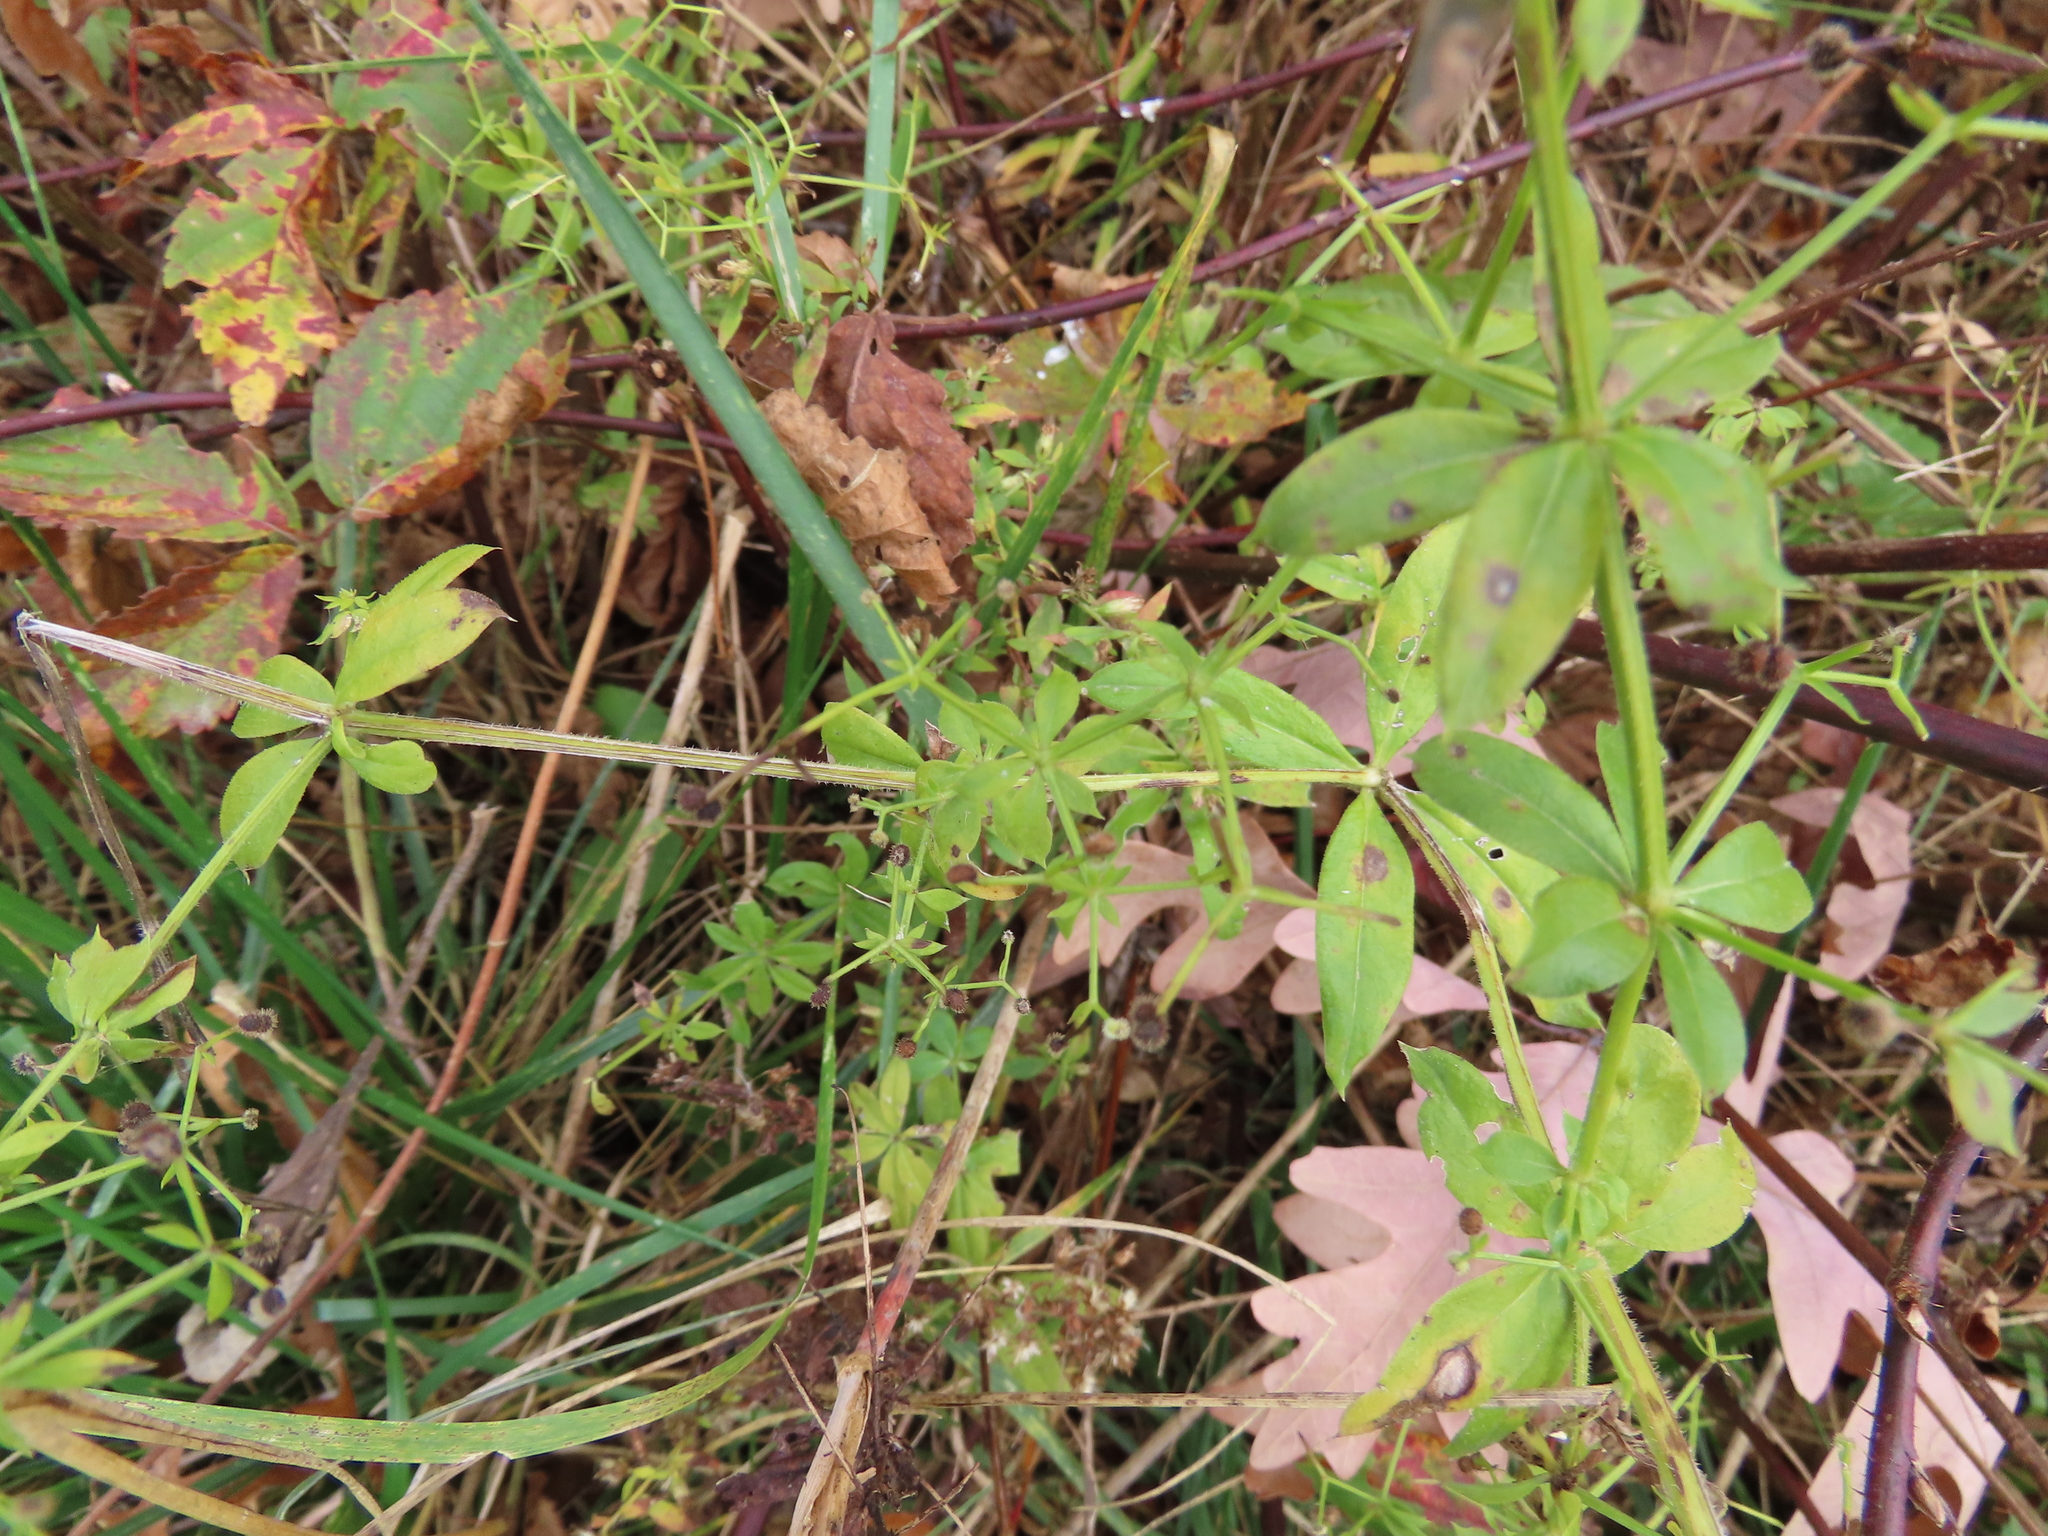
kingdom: Plantae
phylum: Tracheophyta
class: Magnoliopsida
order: Gentianales
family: Rubiaceae
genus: Galium
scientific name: Galium triflorum
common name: Fragrant bedstraw
